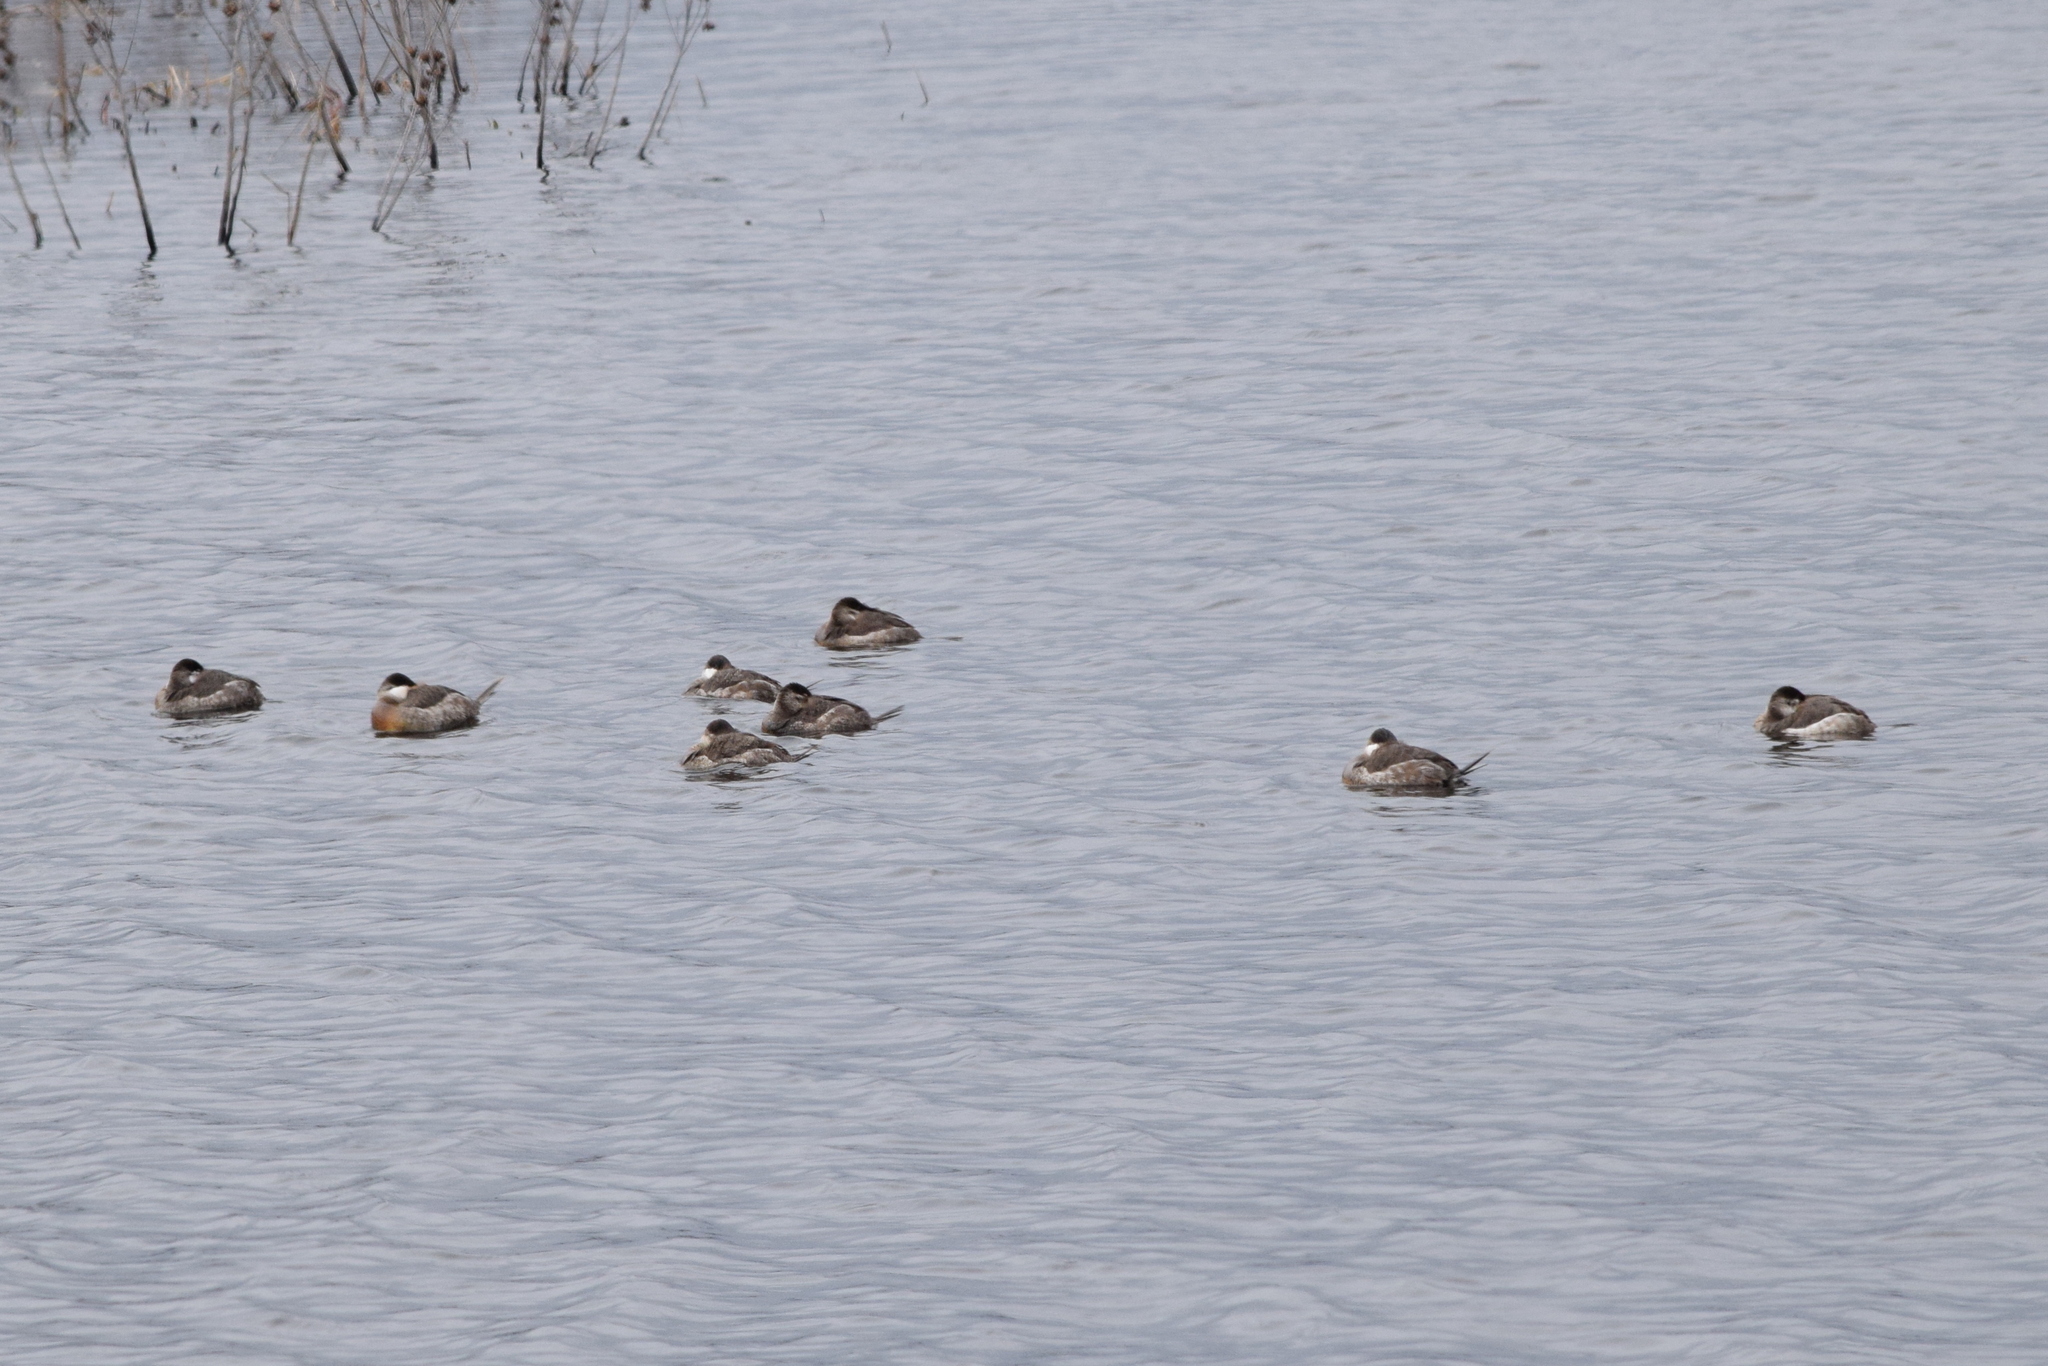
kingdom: Animalia
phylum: Chordata
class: Aves
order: Anseriformes
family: Anatidae
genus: Oxyura
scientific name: Oxyura jamaicensis
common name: Ruddy duck
